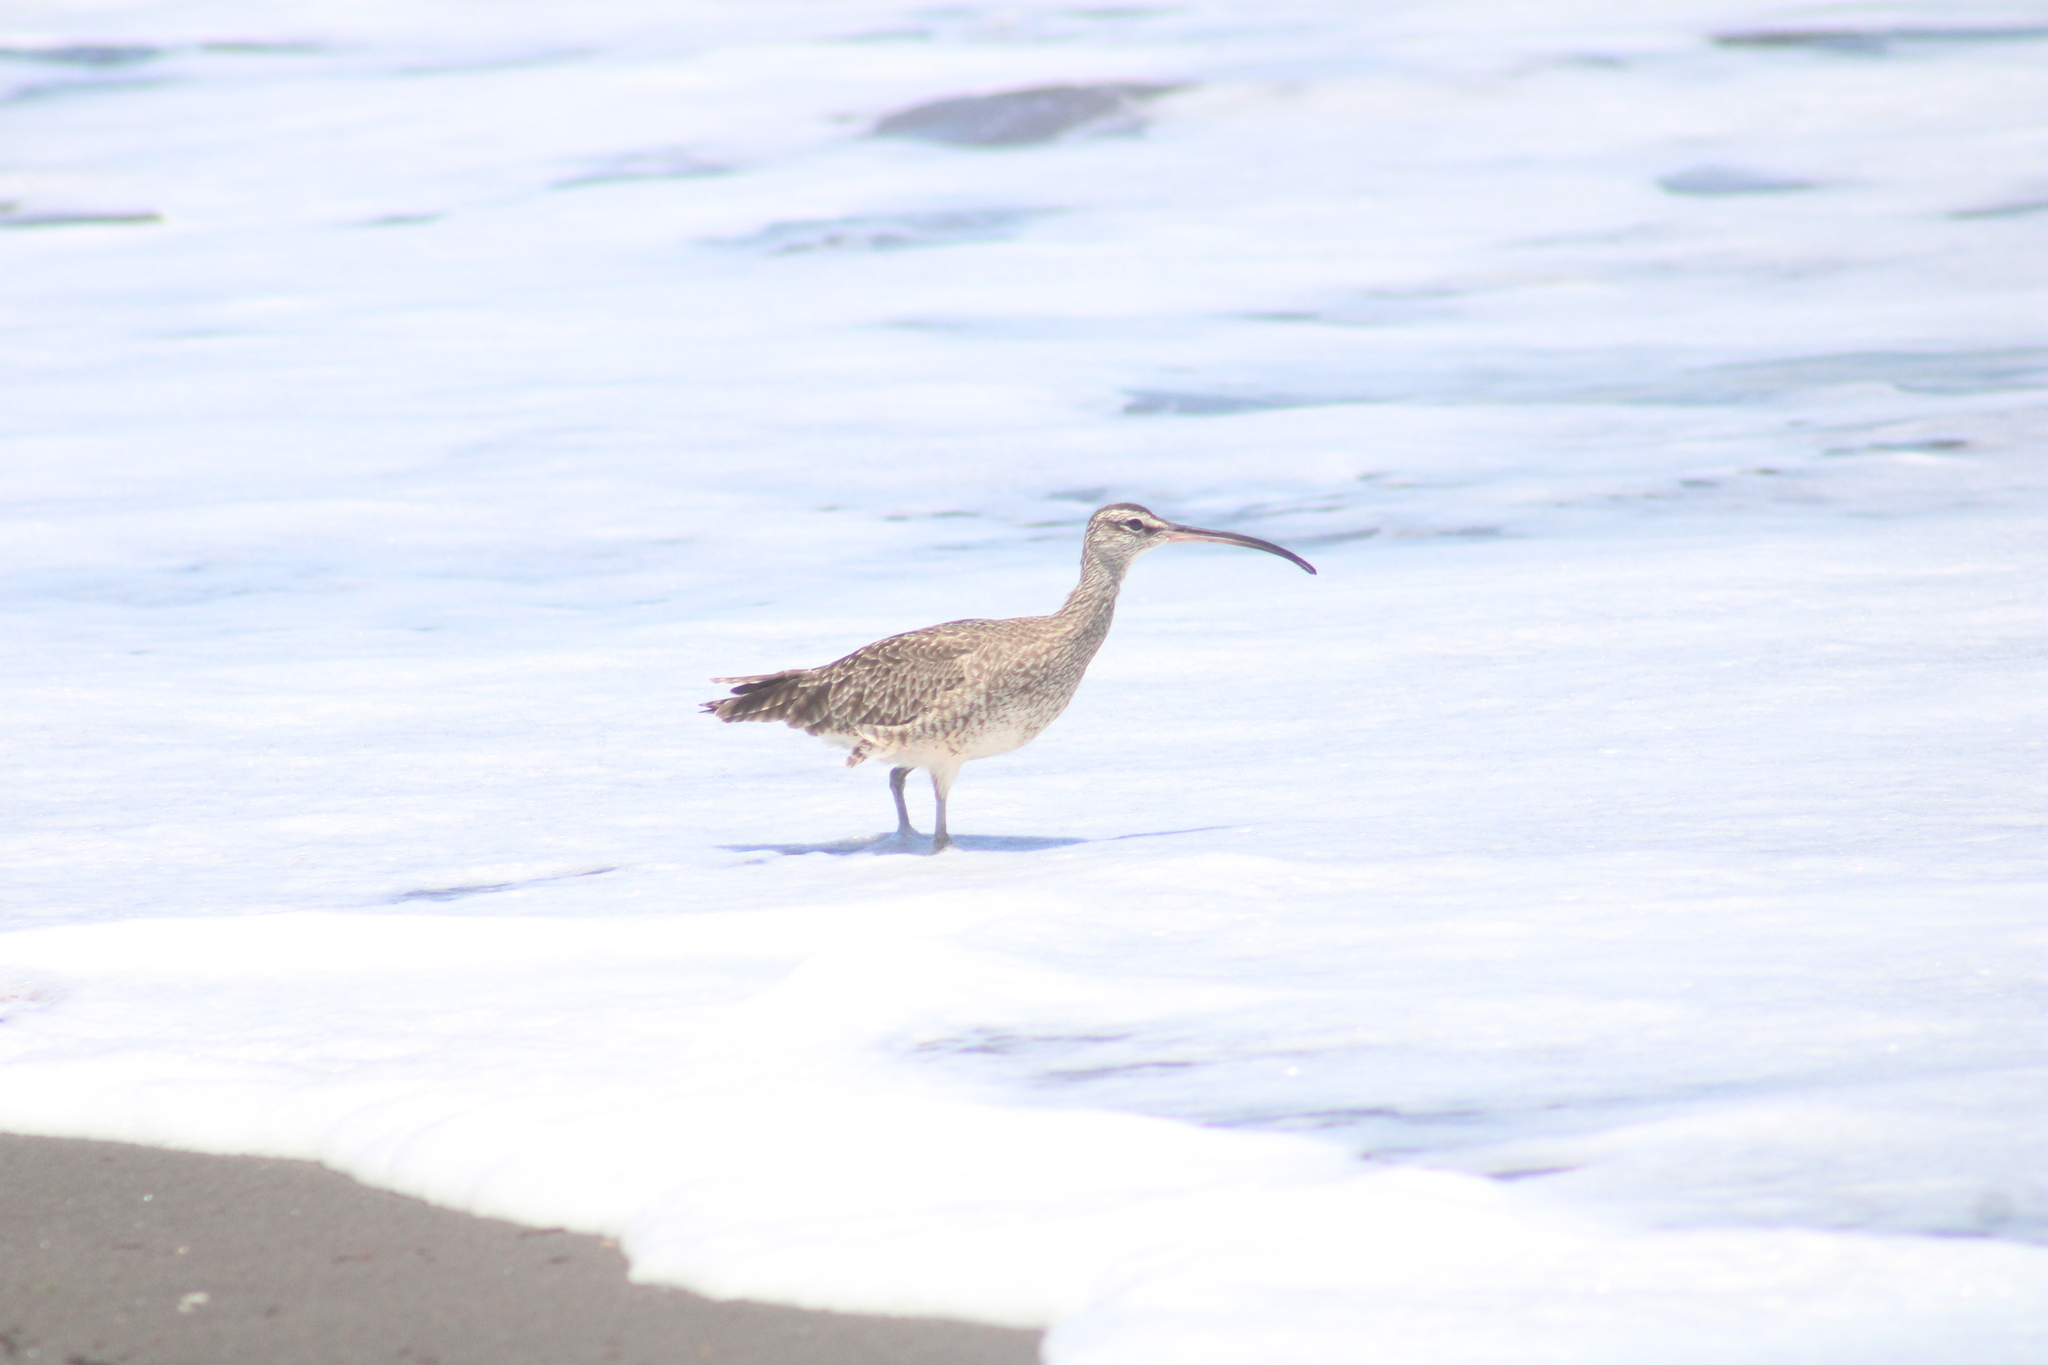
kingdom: Animalia
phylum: Chordata
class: Aves
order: Charadriiformes
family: Scolopacidae
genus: Numenius
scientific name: Numenius phaeopus
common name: Whimbrel
